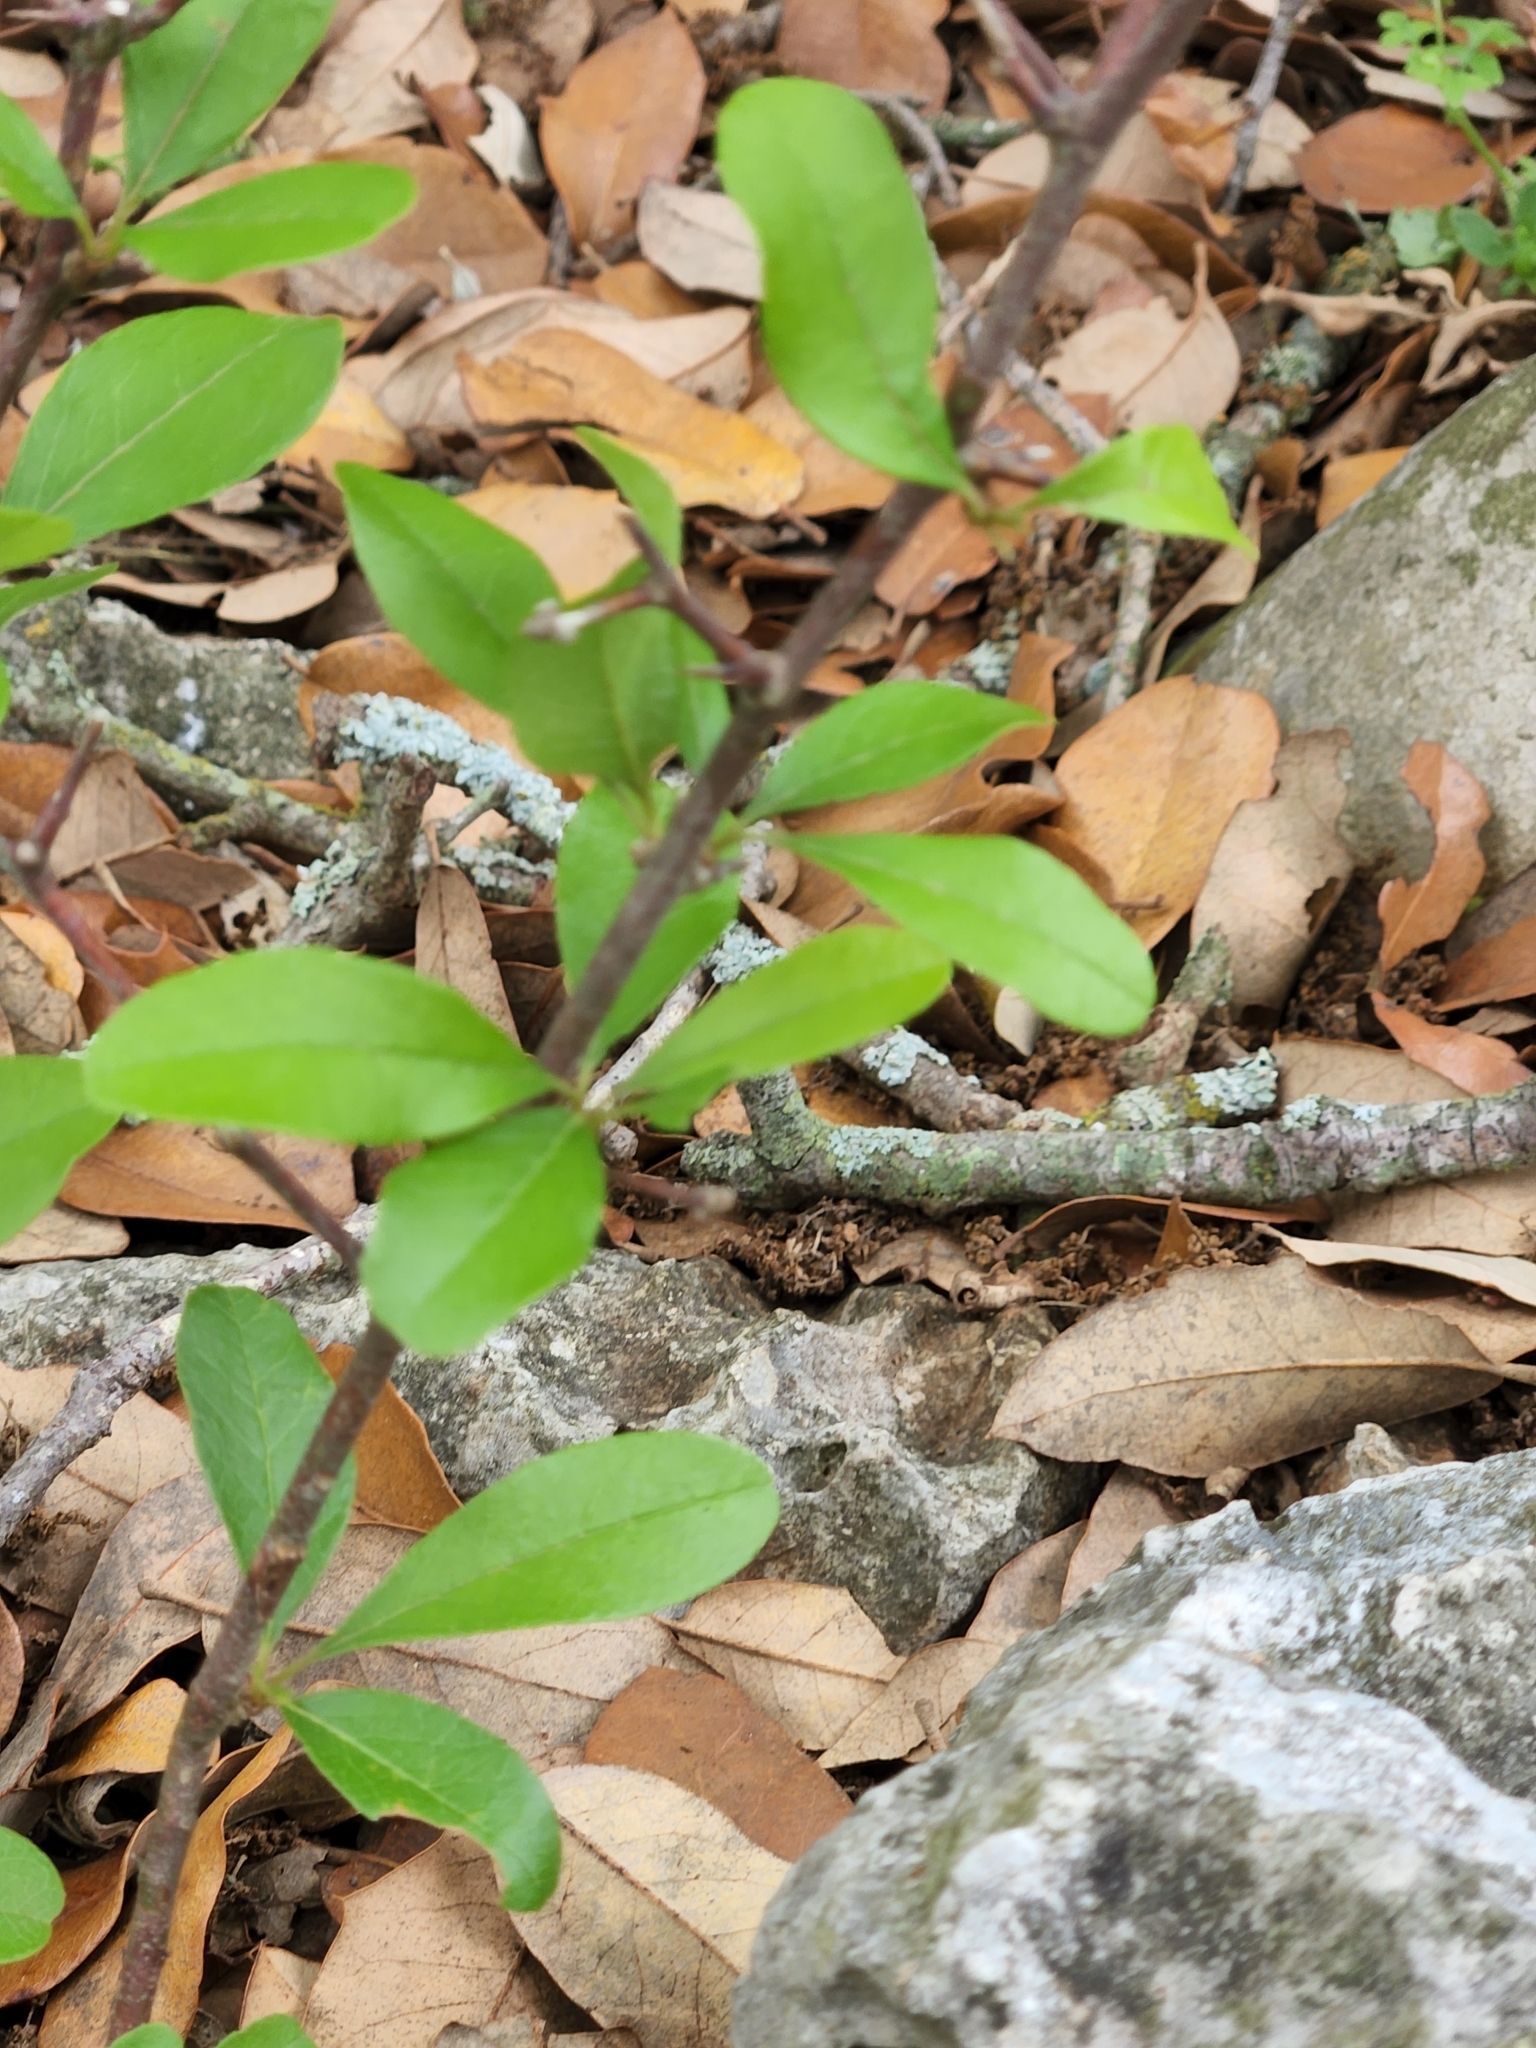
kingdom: Plantae
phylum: Tracheophyta
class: Magnoliopsida
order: Ericales
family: Sapotaceae
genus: Sideroxylon
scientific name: Sideroxylon lanuginosum
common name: Chittamwood
